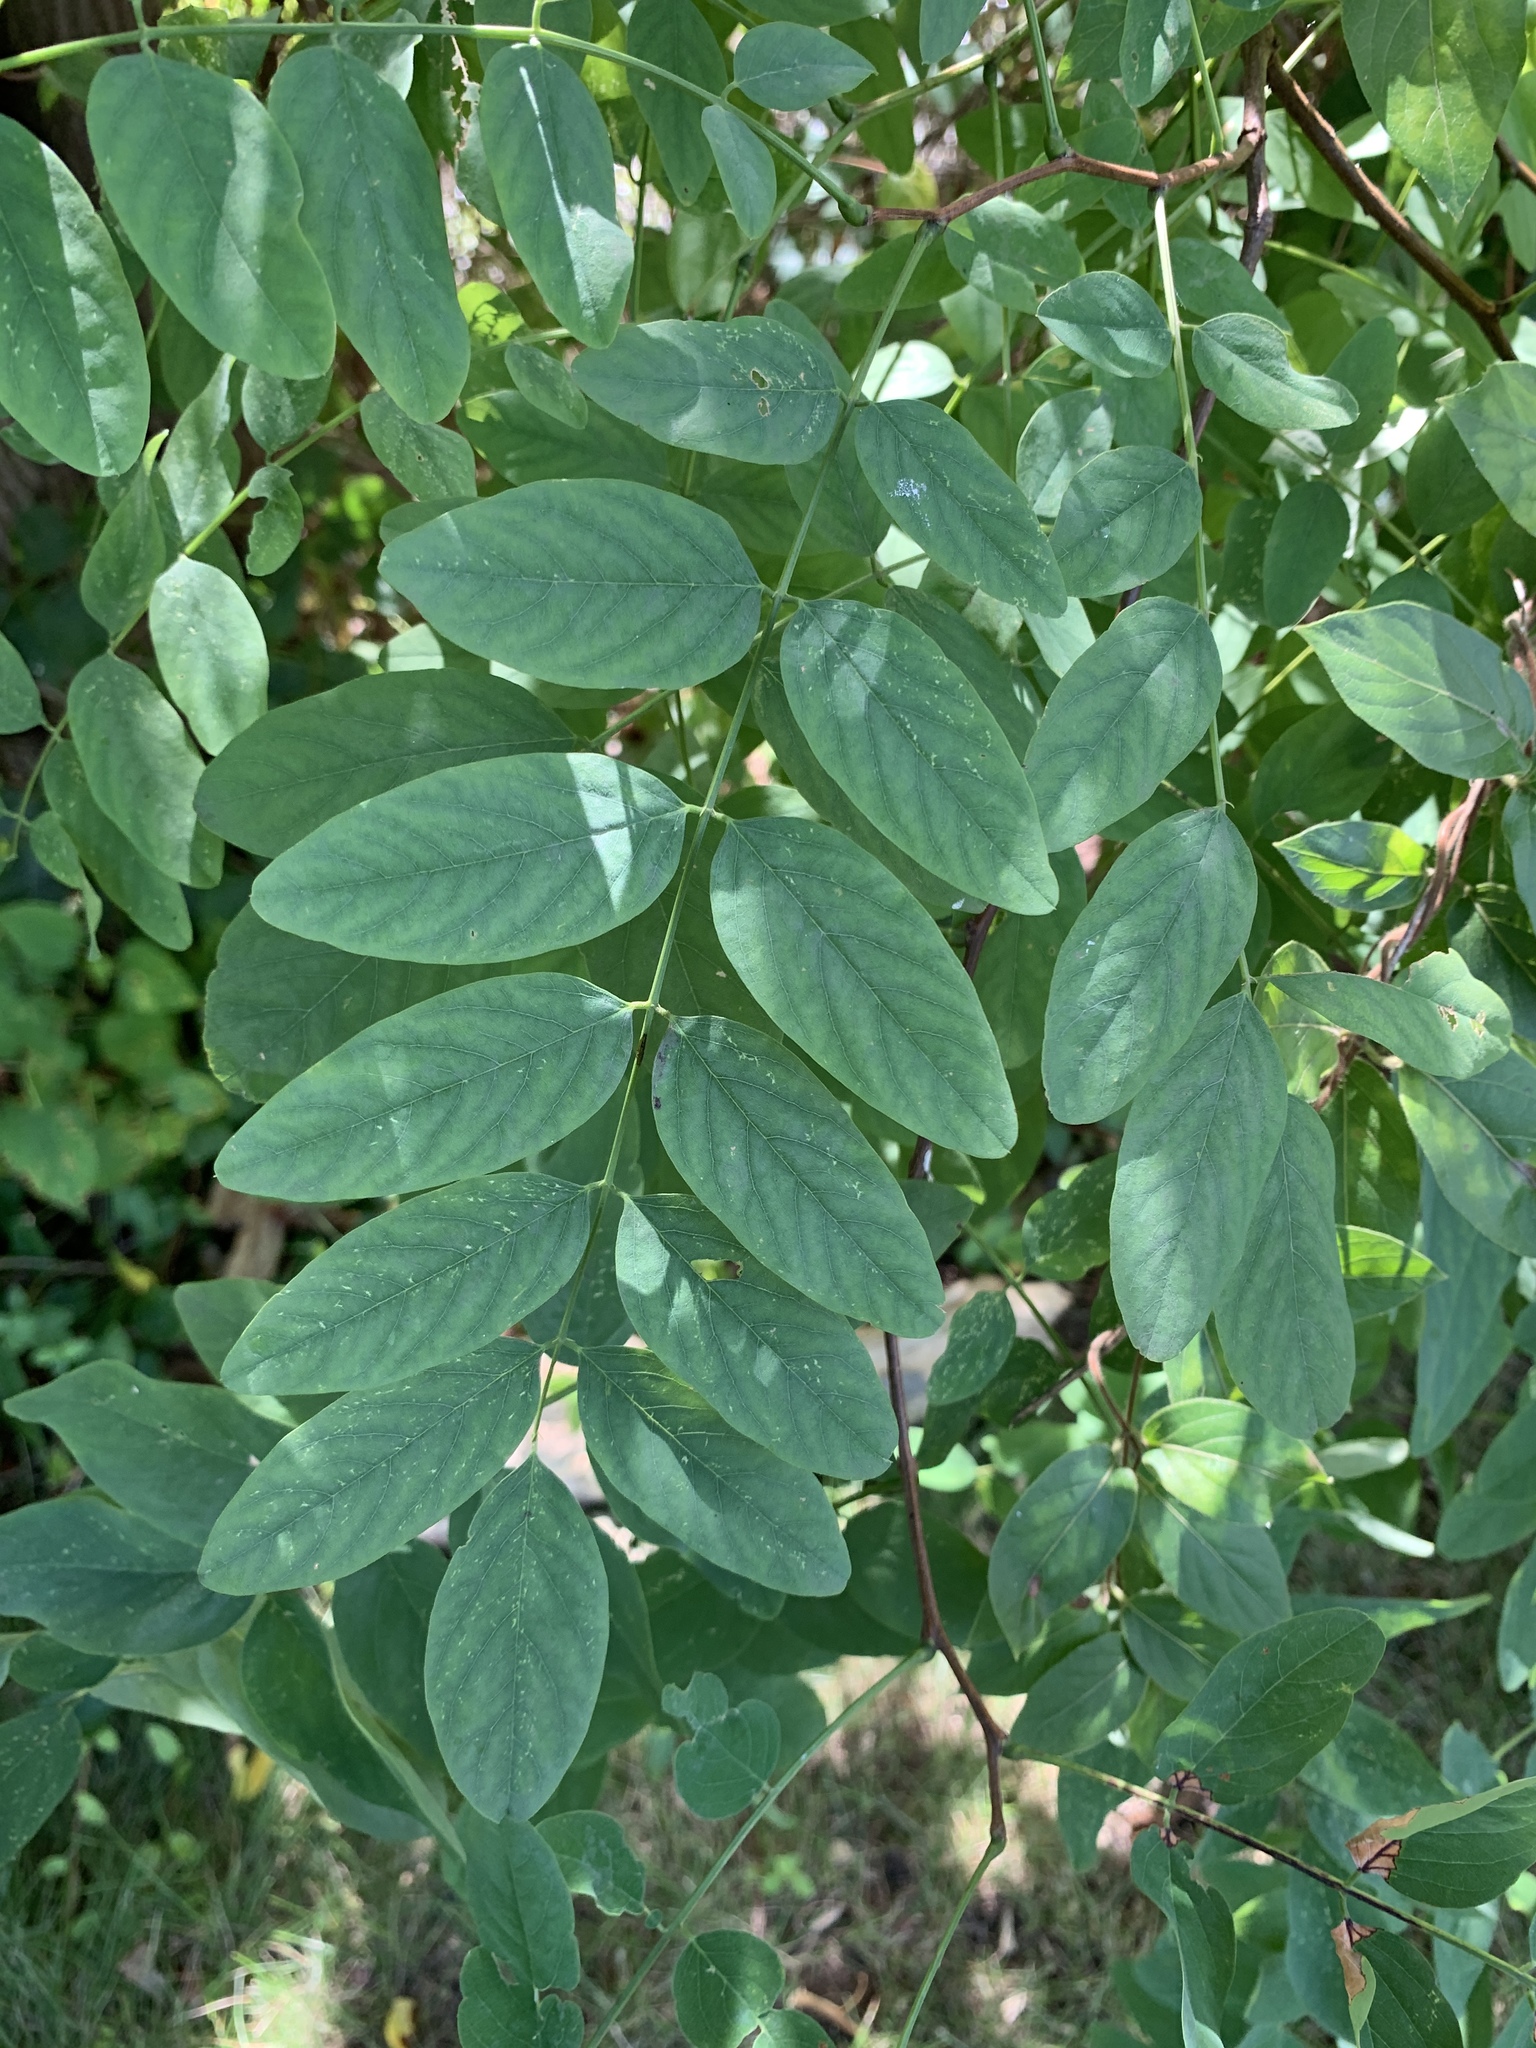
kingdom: Plantae
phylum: Tracheophyta
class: Magnoliopsida
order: Fabales
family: Fabaceae
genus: Robinia
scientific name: Robinia pseudoacacia
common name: Black locust
